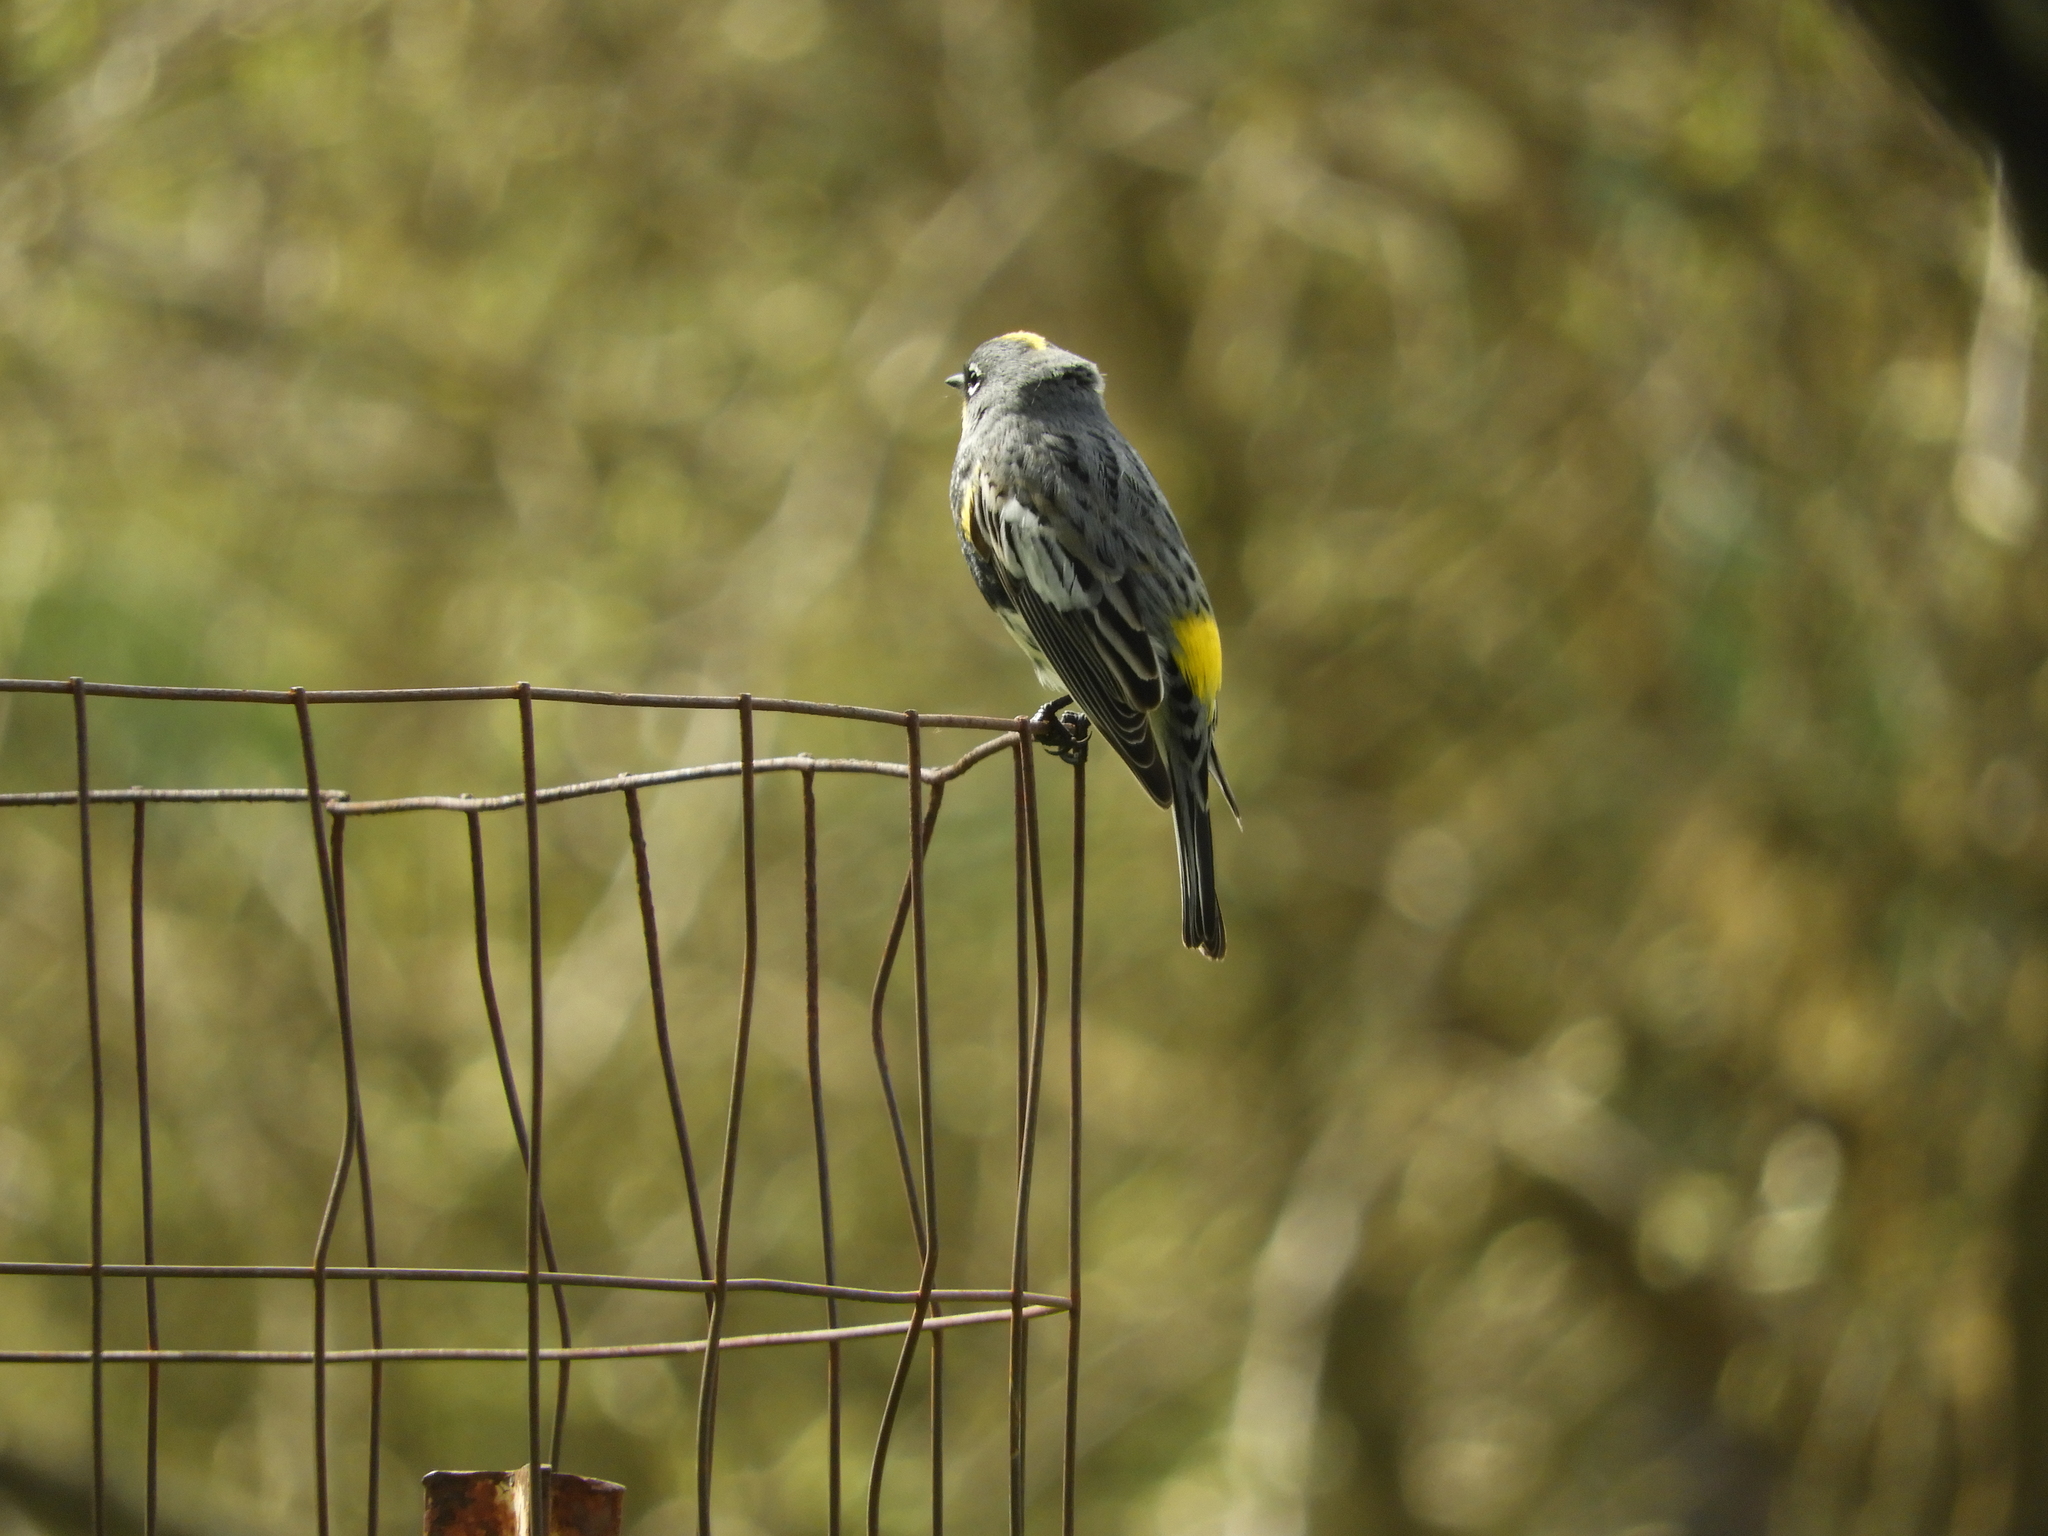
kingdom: Animalia
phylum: Chordata
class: Aves
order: Passeriformes
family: Parulidae
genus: Setophaga
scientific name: Setophaga auduboni
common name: Audubon's warbler
